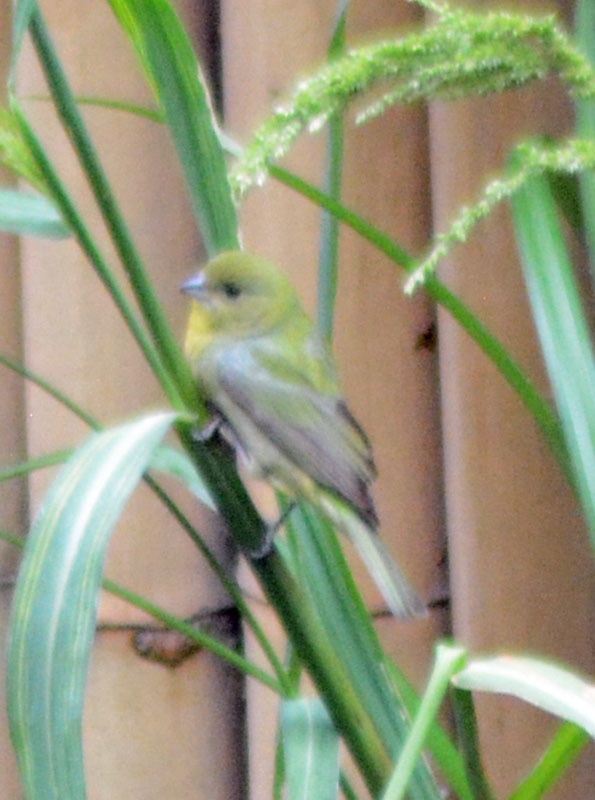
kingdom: Animalia
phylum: Chordata
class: Aves
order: Passeriformes
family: Cardinalidae
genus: Passerina
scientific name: Passerina ciris
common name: Painted bunting
